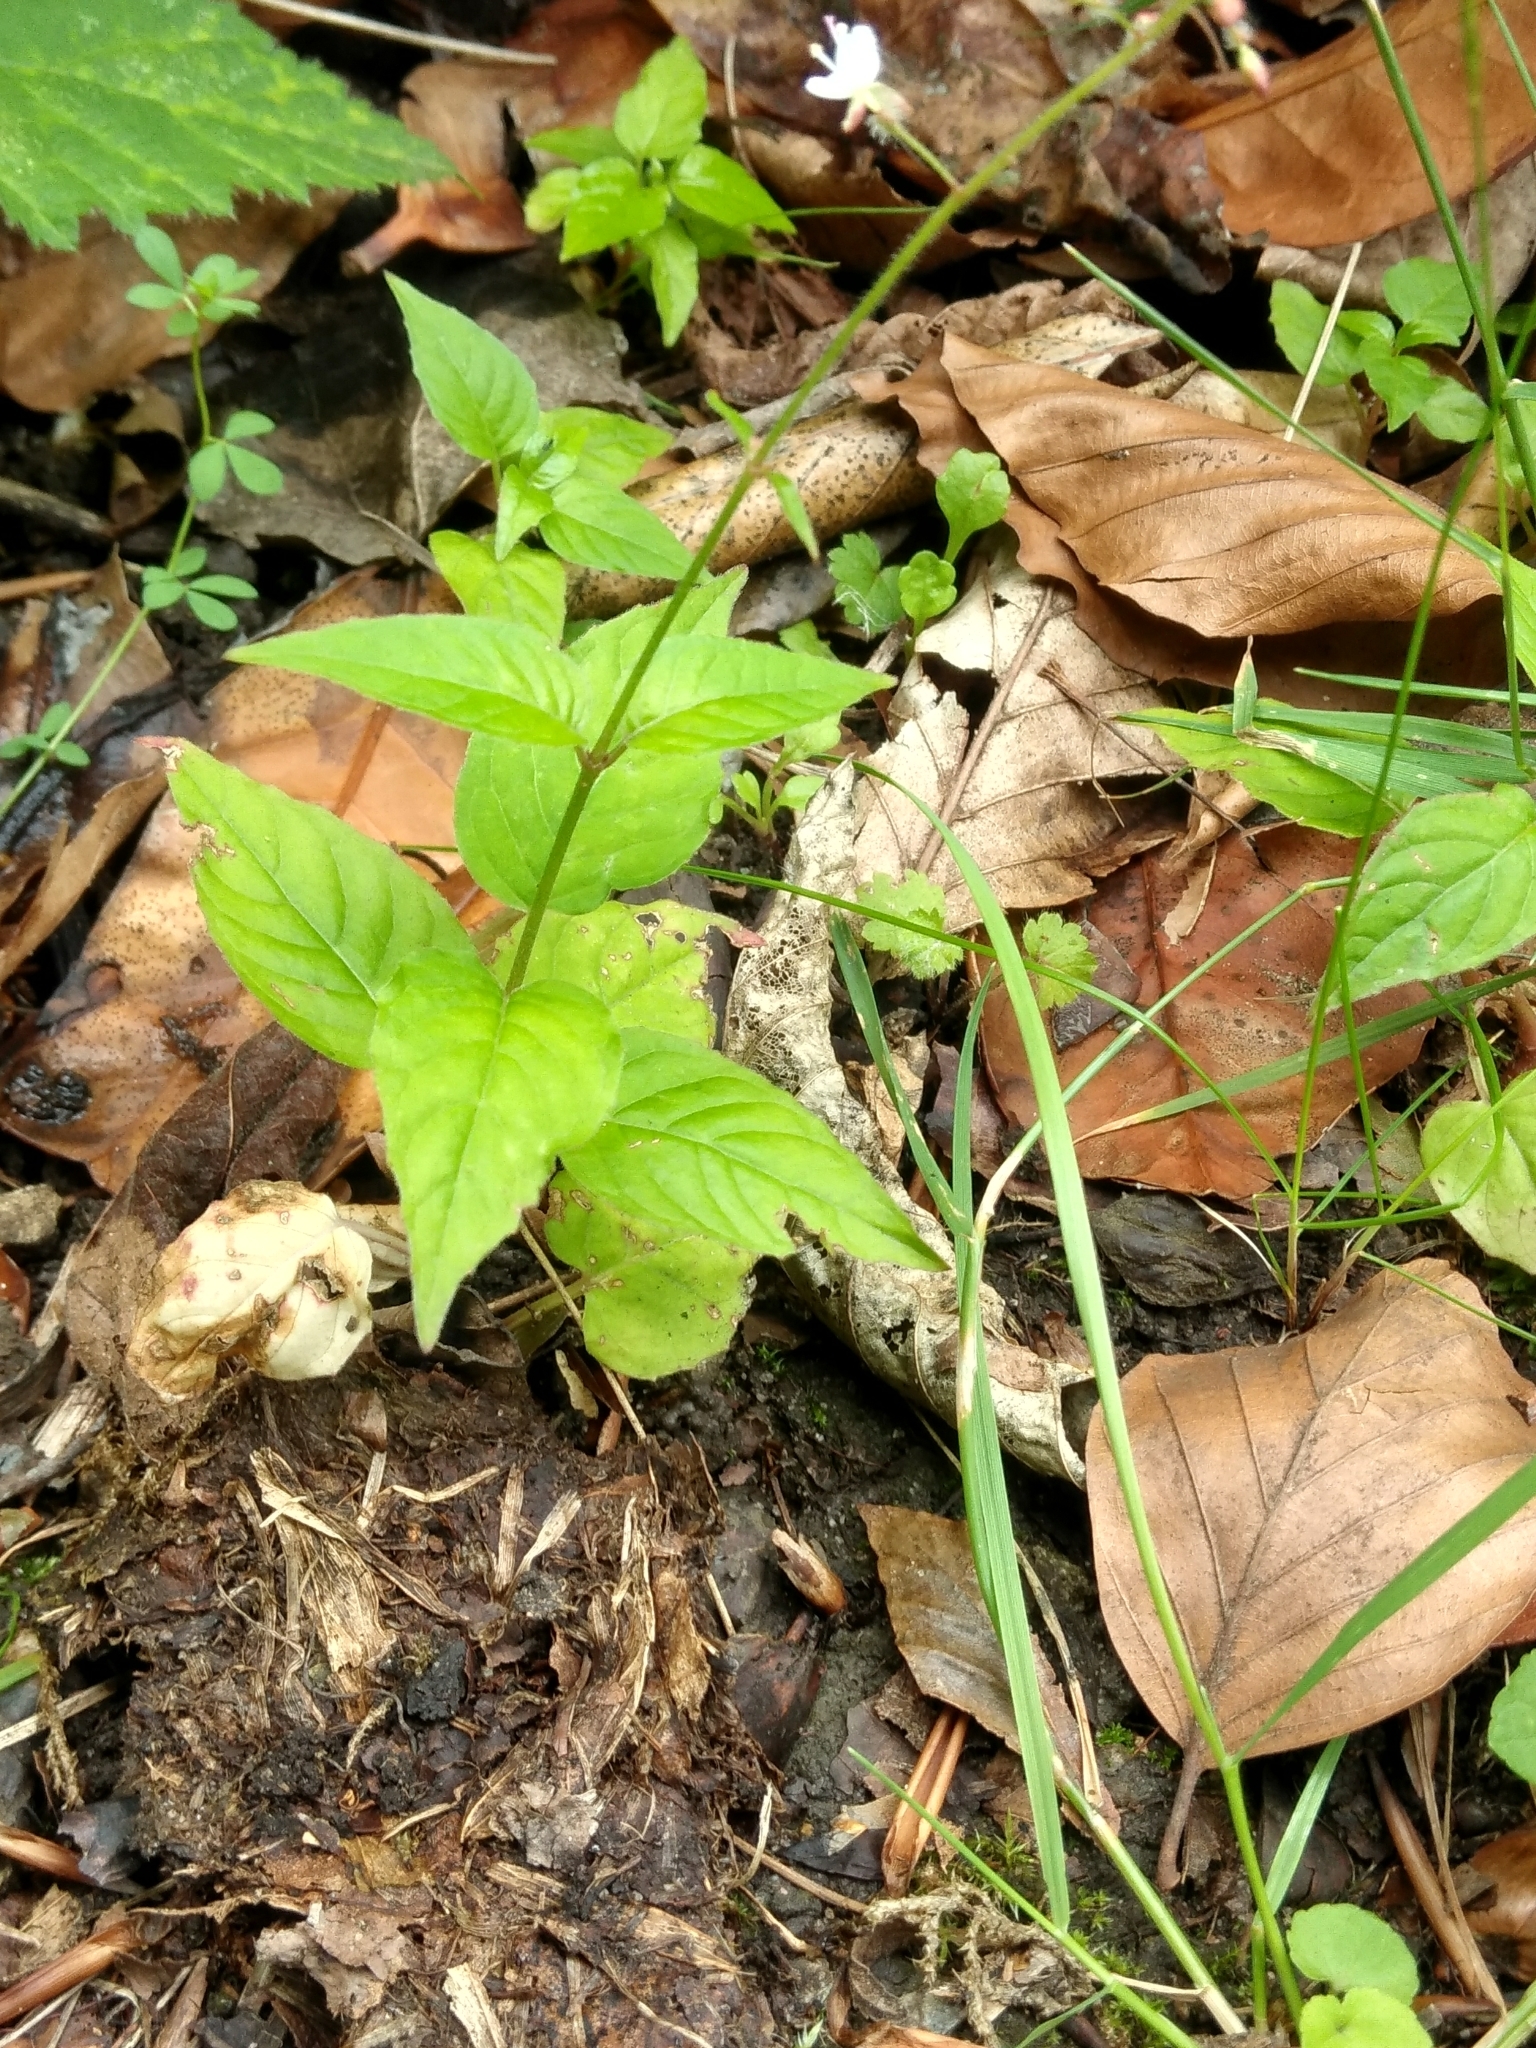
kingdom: Plantae
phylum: Tracheophyta
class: Magnoliopsida
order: Myrtales
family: Onagraceae
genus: Circaea
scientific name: Circaea lutetiana
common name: Enchanter's-nightshade
